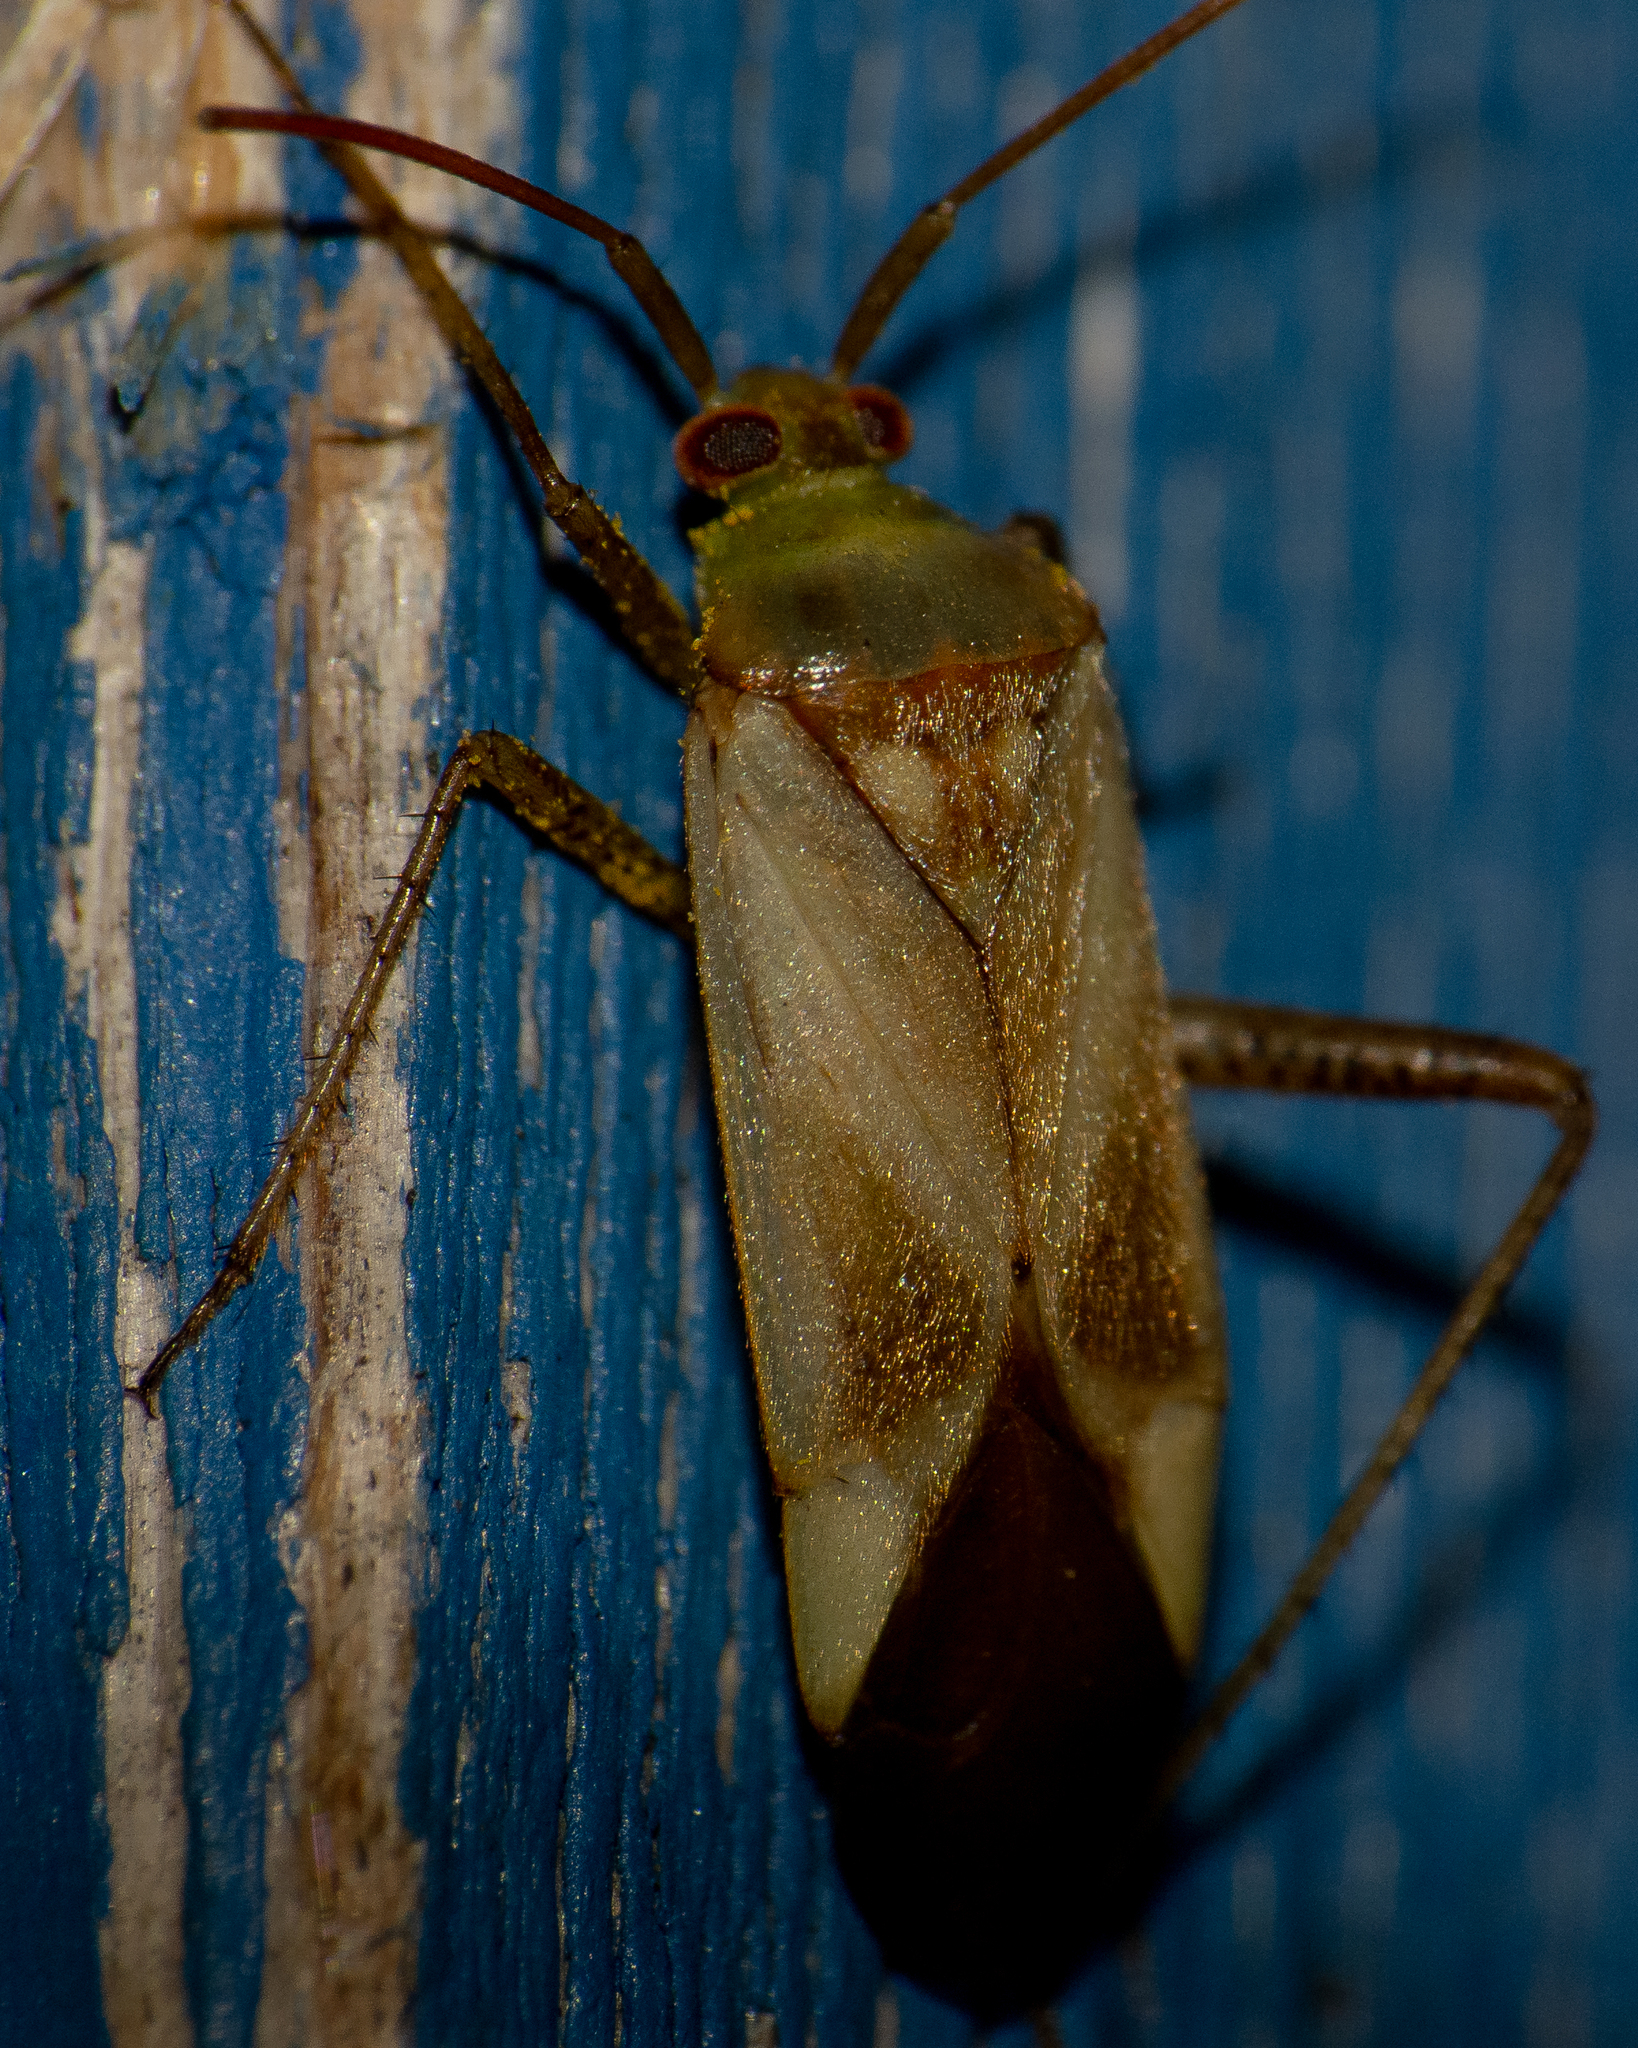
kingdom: Animalia
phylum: Arthropoda
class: Insecta
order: Hemiptera
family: Miridae
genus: Adelphocoris
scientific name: Adelphocoris lineolatus
